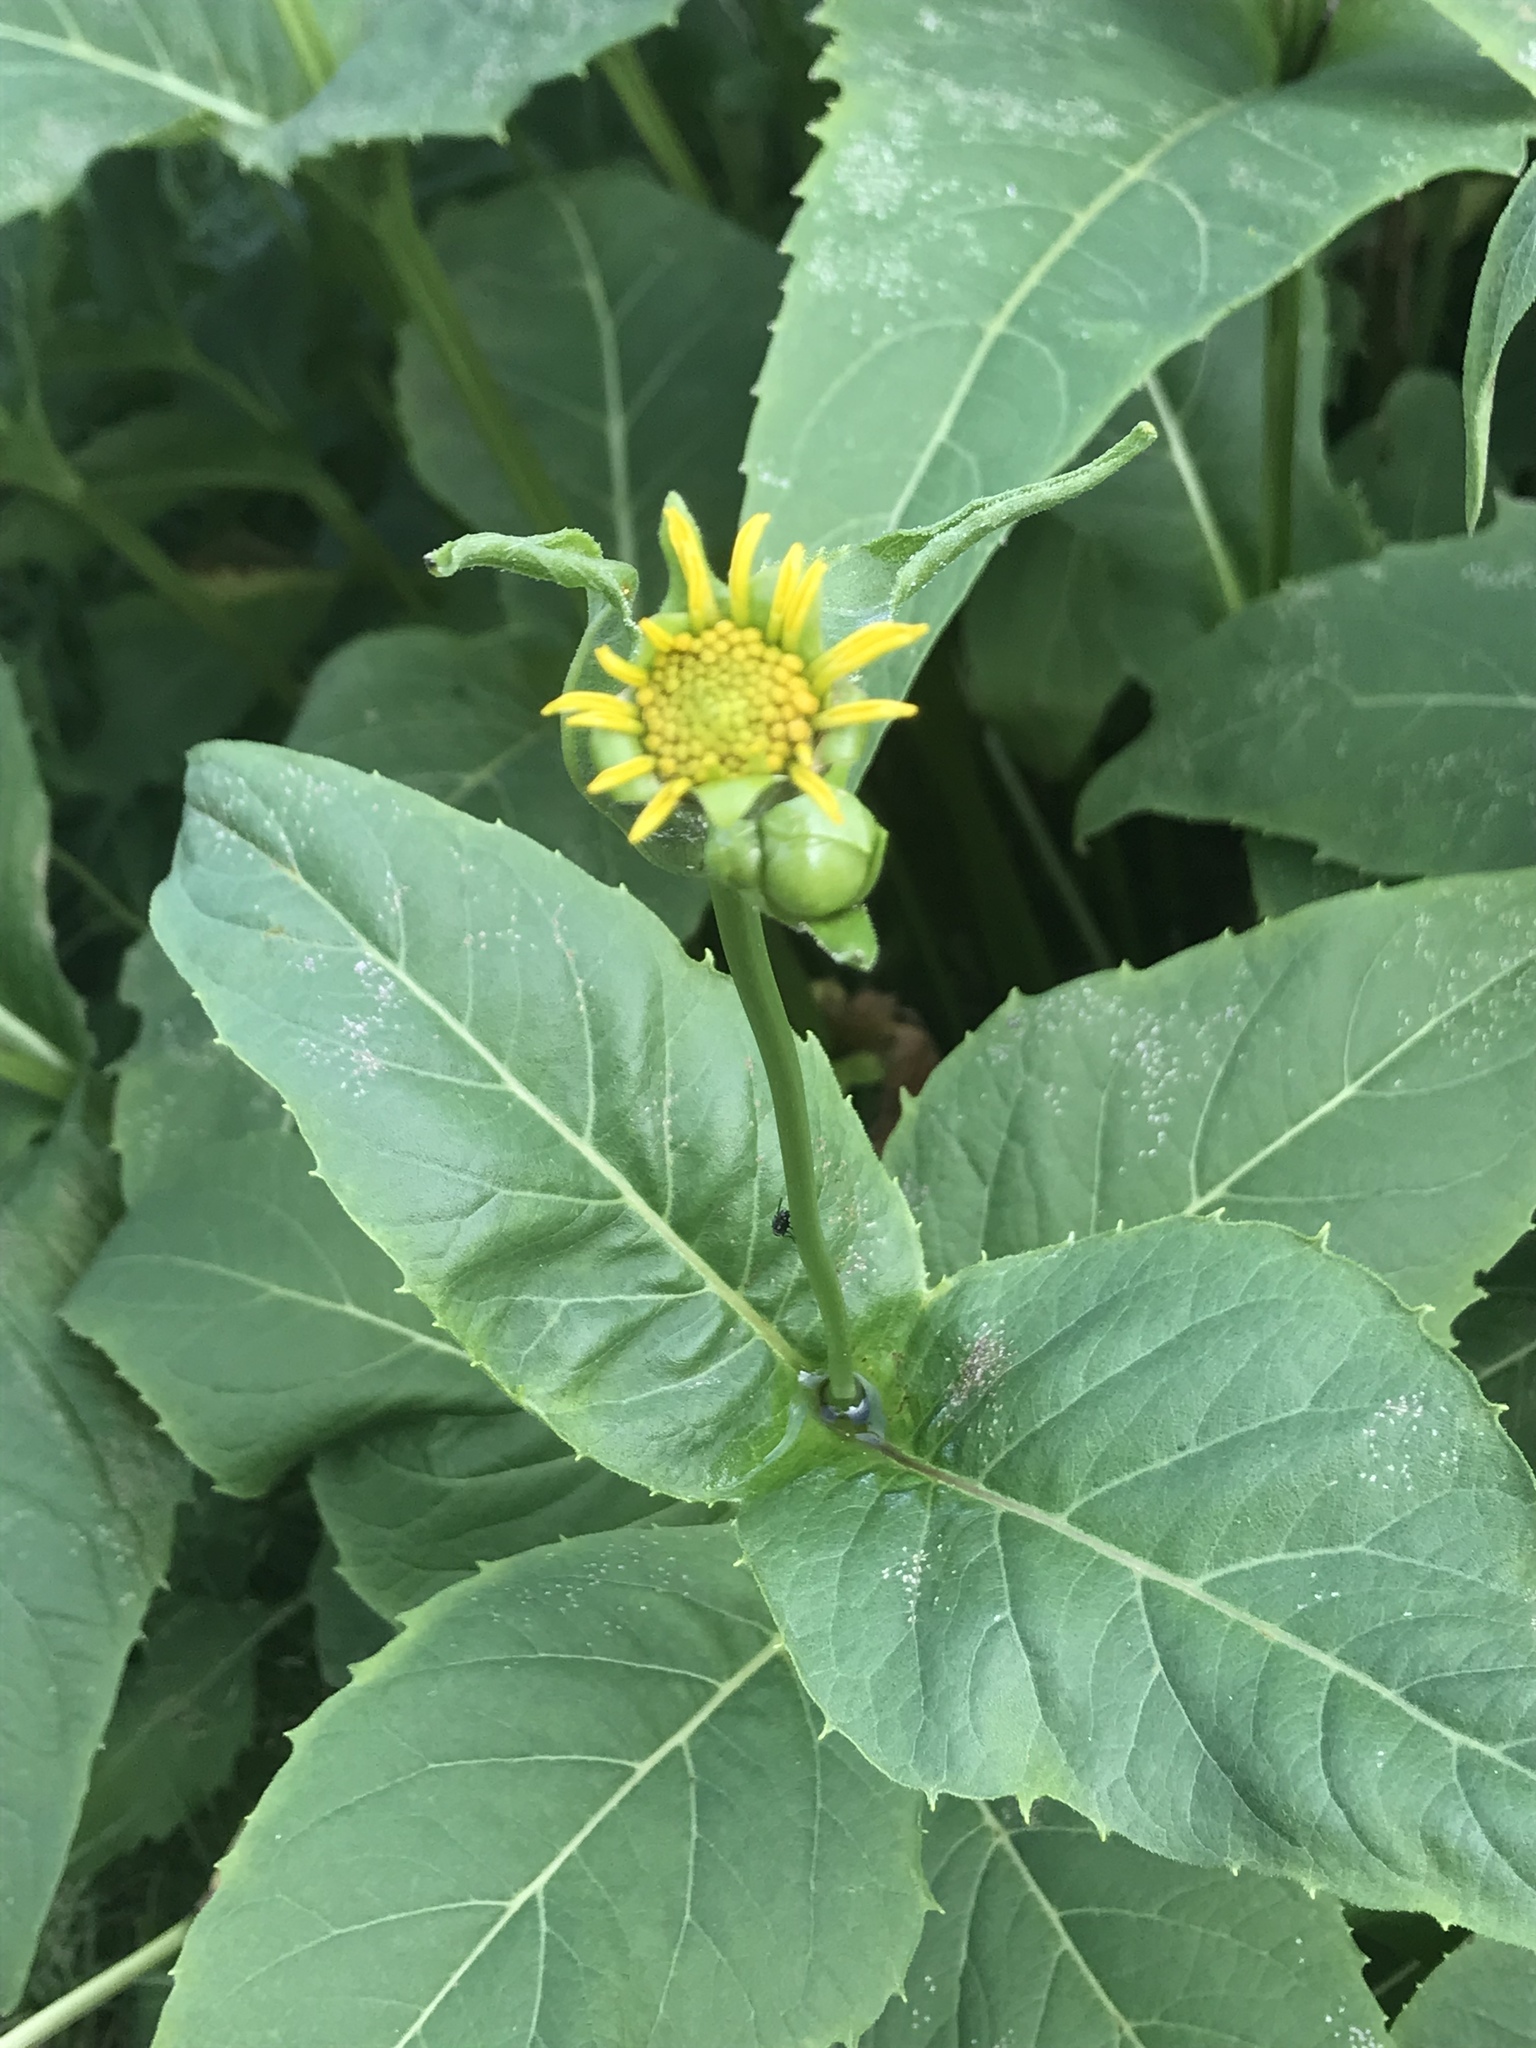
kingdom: Plantae
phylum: Tracheophyta
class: Magnoliopsida
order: Asterales
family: Asteraceae
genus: Silphium
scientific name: Silphium perfoliatum
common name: Cup-plant
